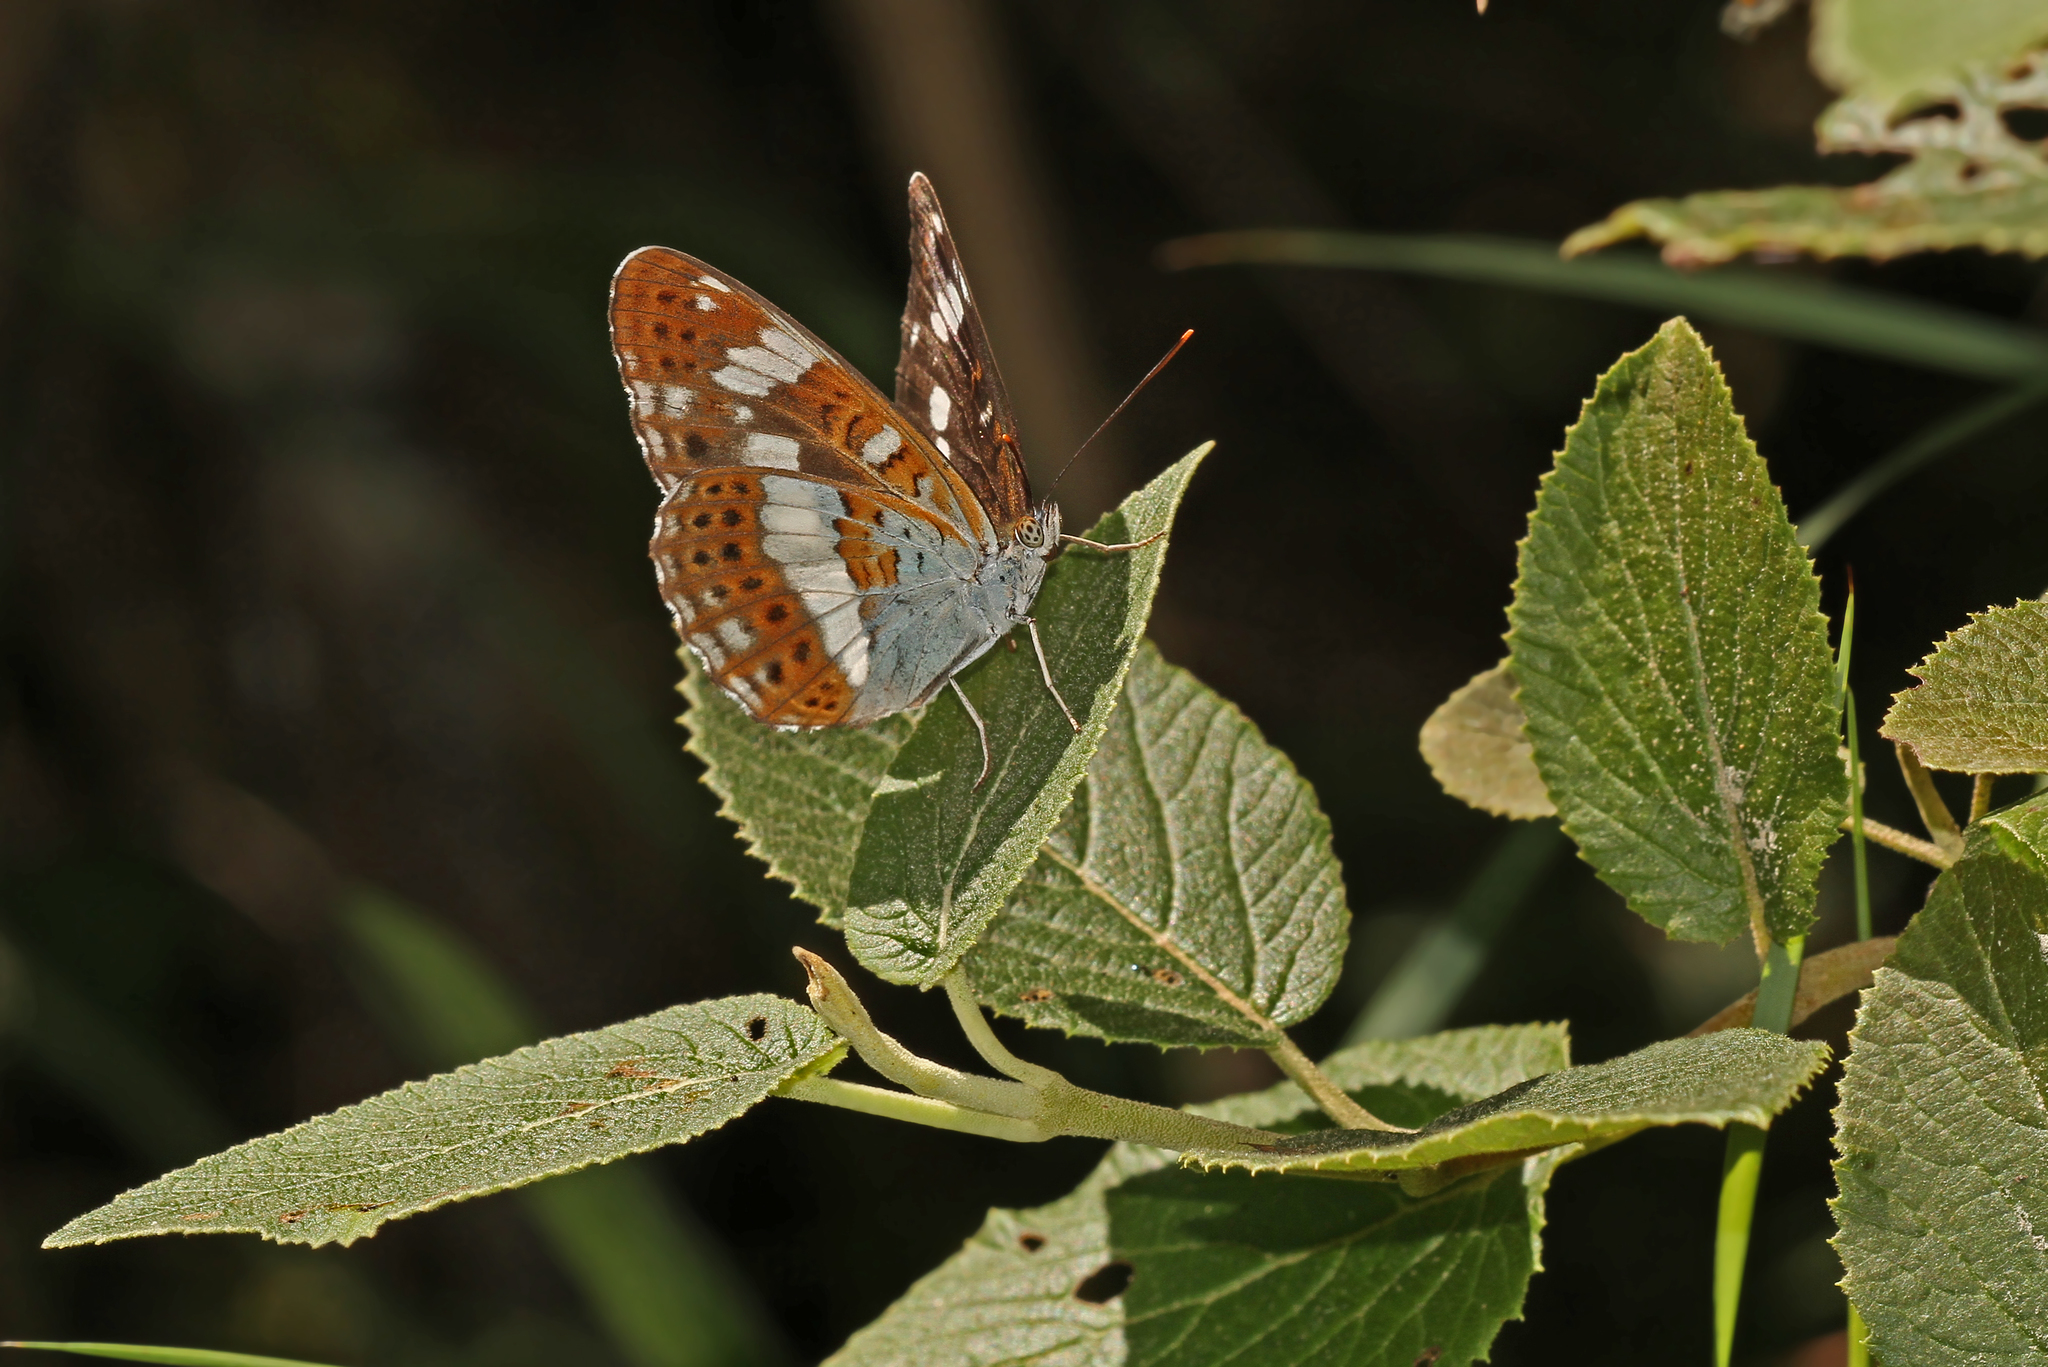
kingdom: Animalia
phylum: Arthropoda
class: Insecta
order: Lepidoptera
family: Nymphalidae
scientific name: Nymphalidae
